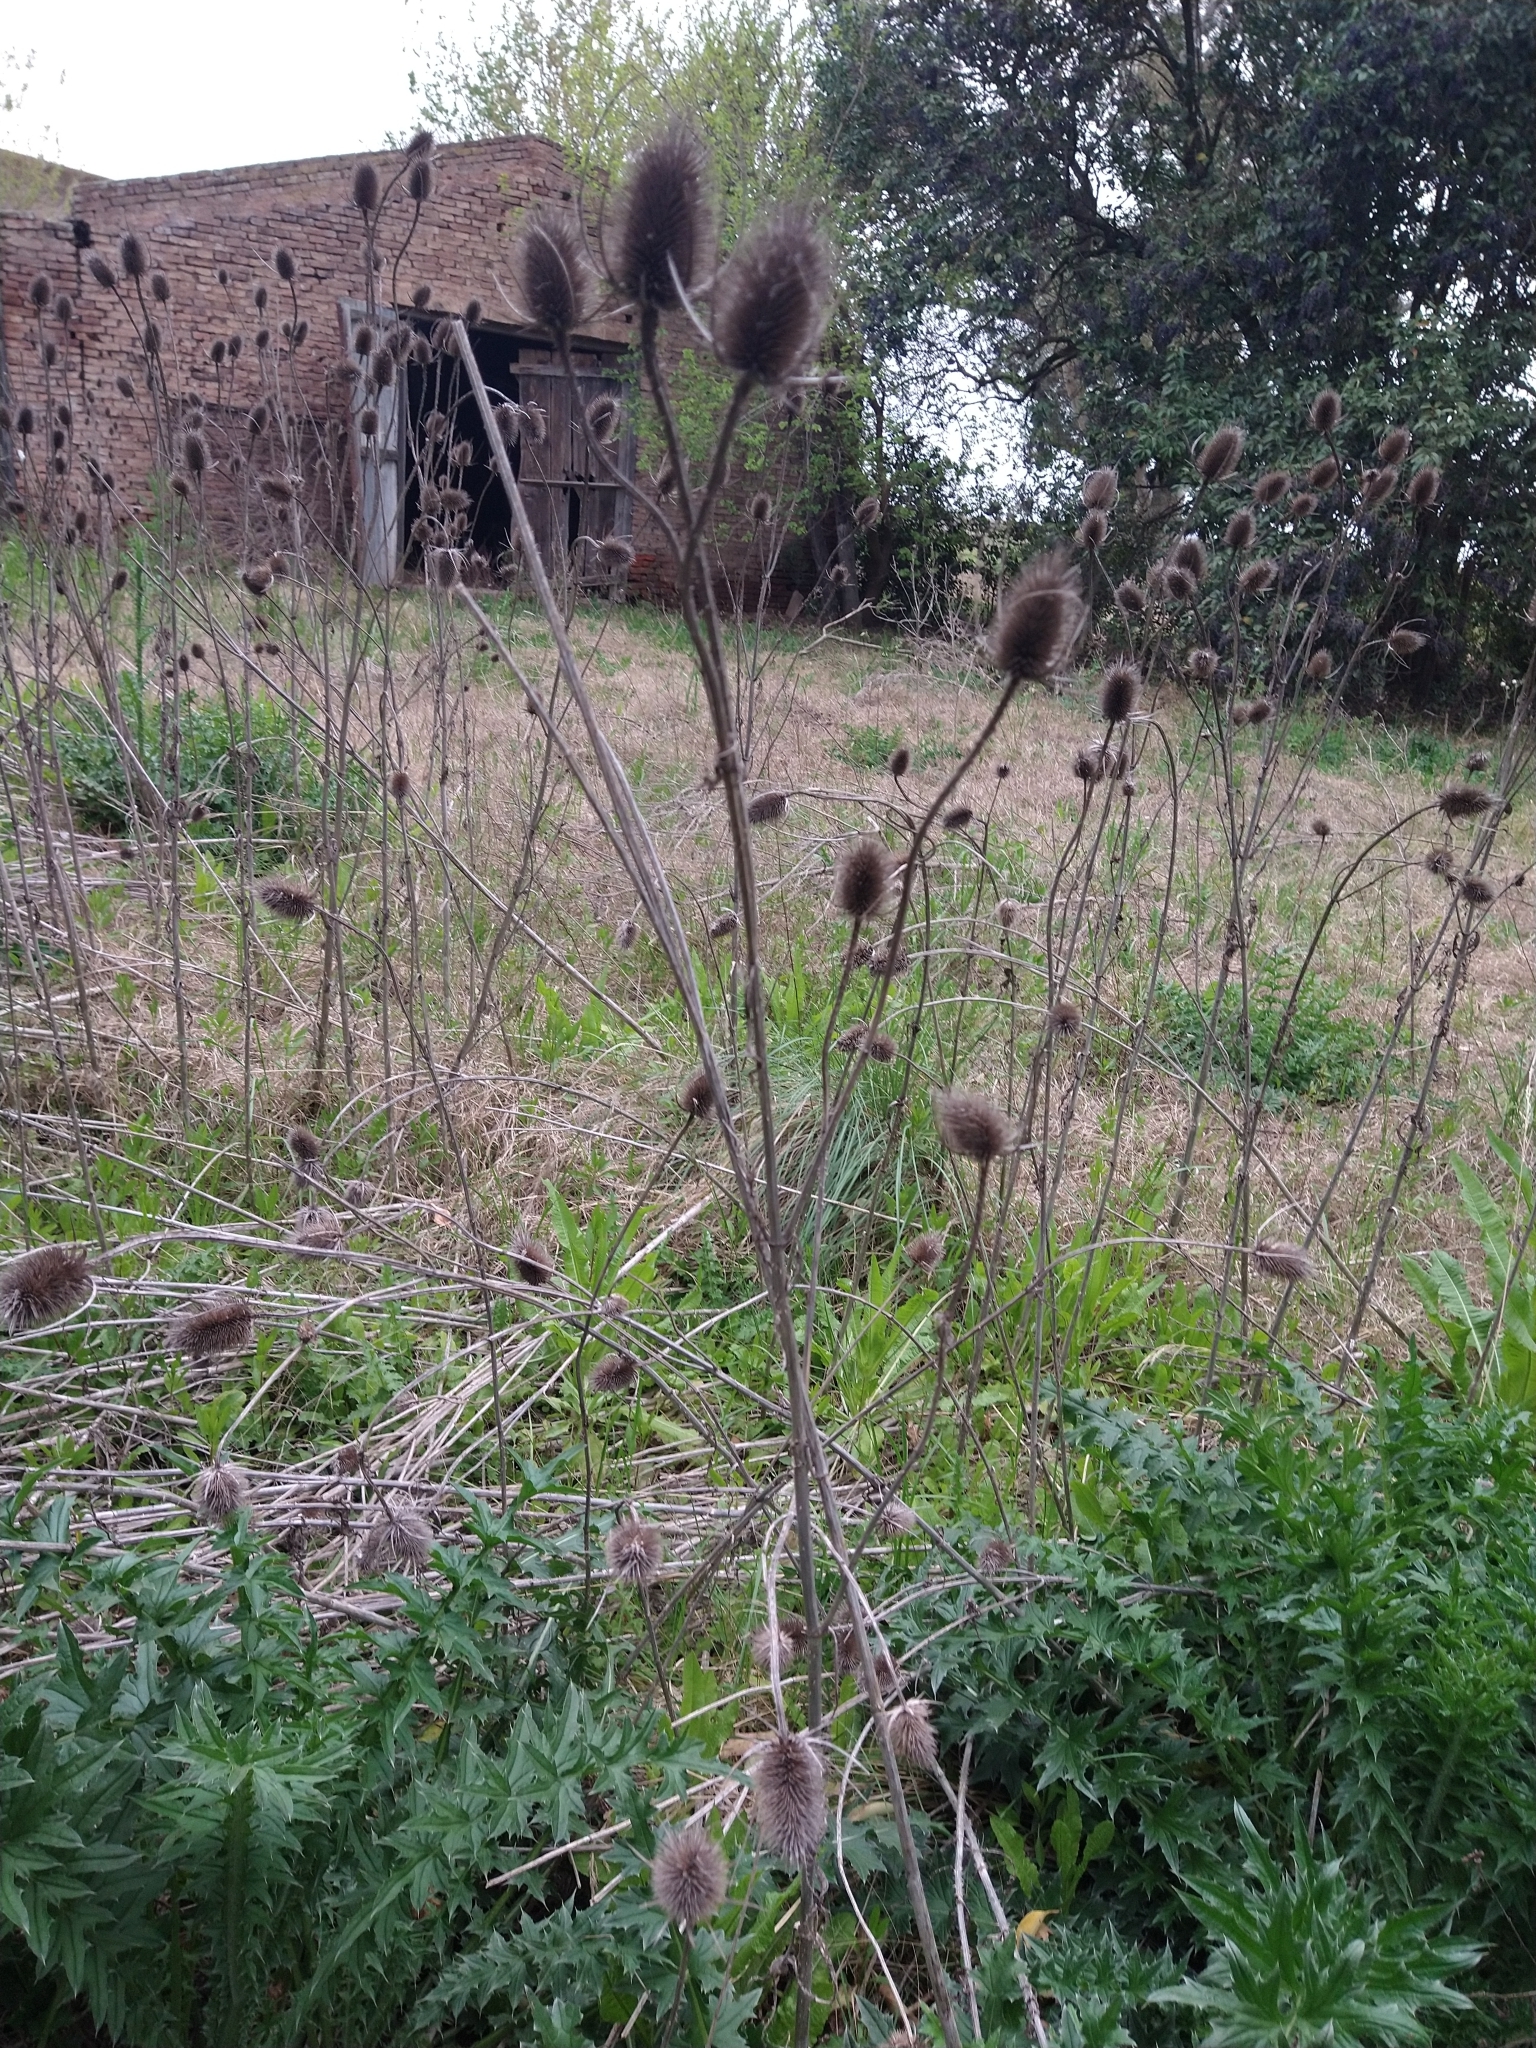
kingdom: Plantae
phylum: Tracheophyta
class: Magnoliopsida
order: Dipsacales
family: Caprifoliaceae
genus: Dipsacus
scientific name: Dipsacus fullonum
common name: Teasel
